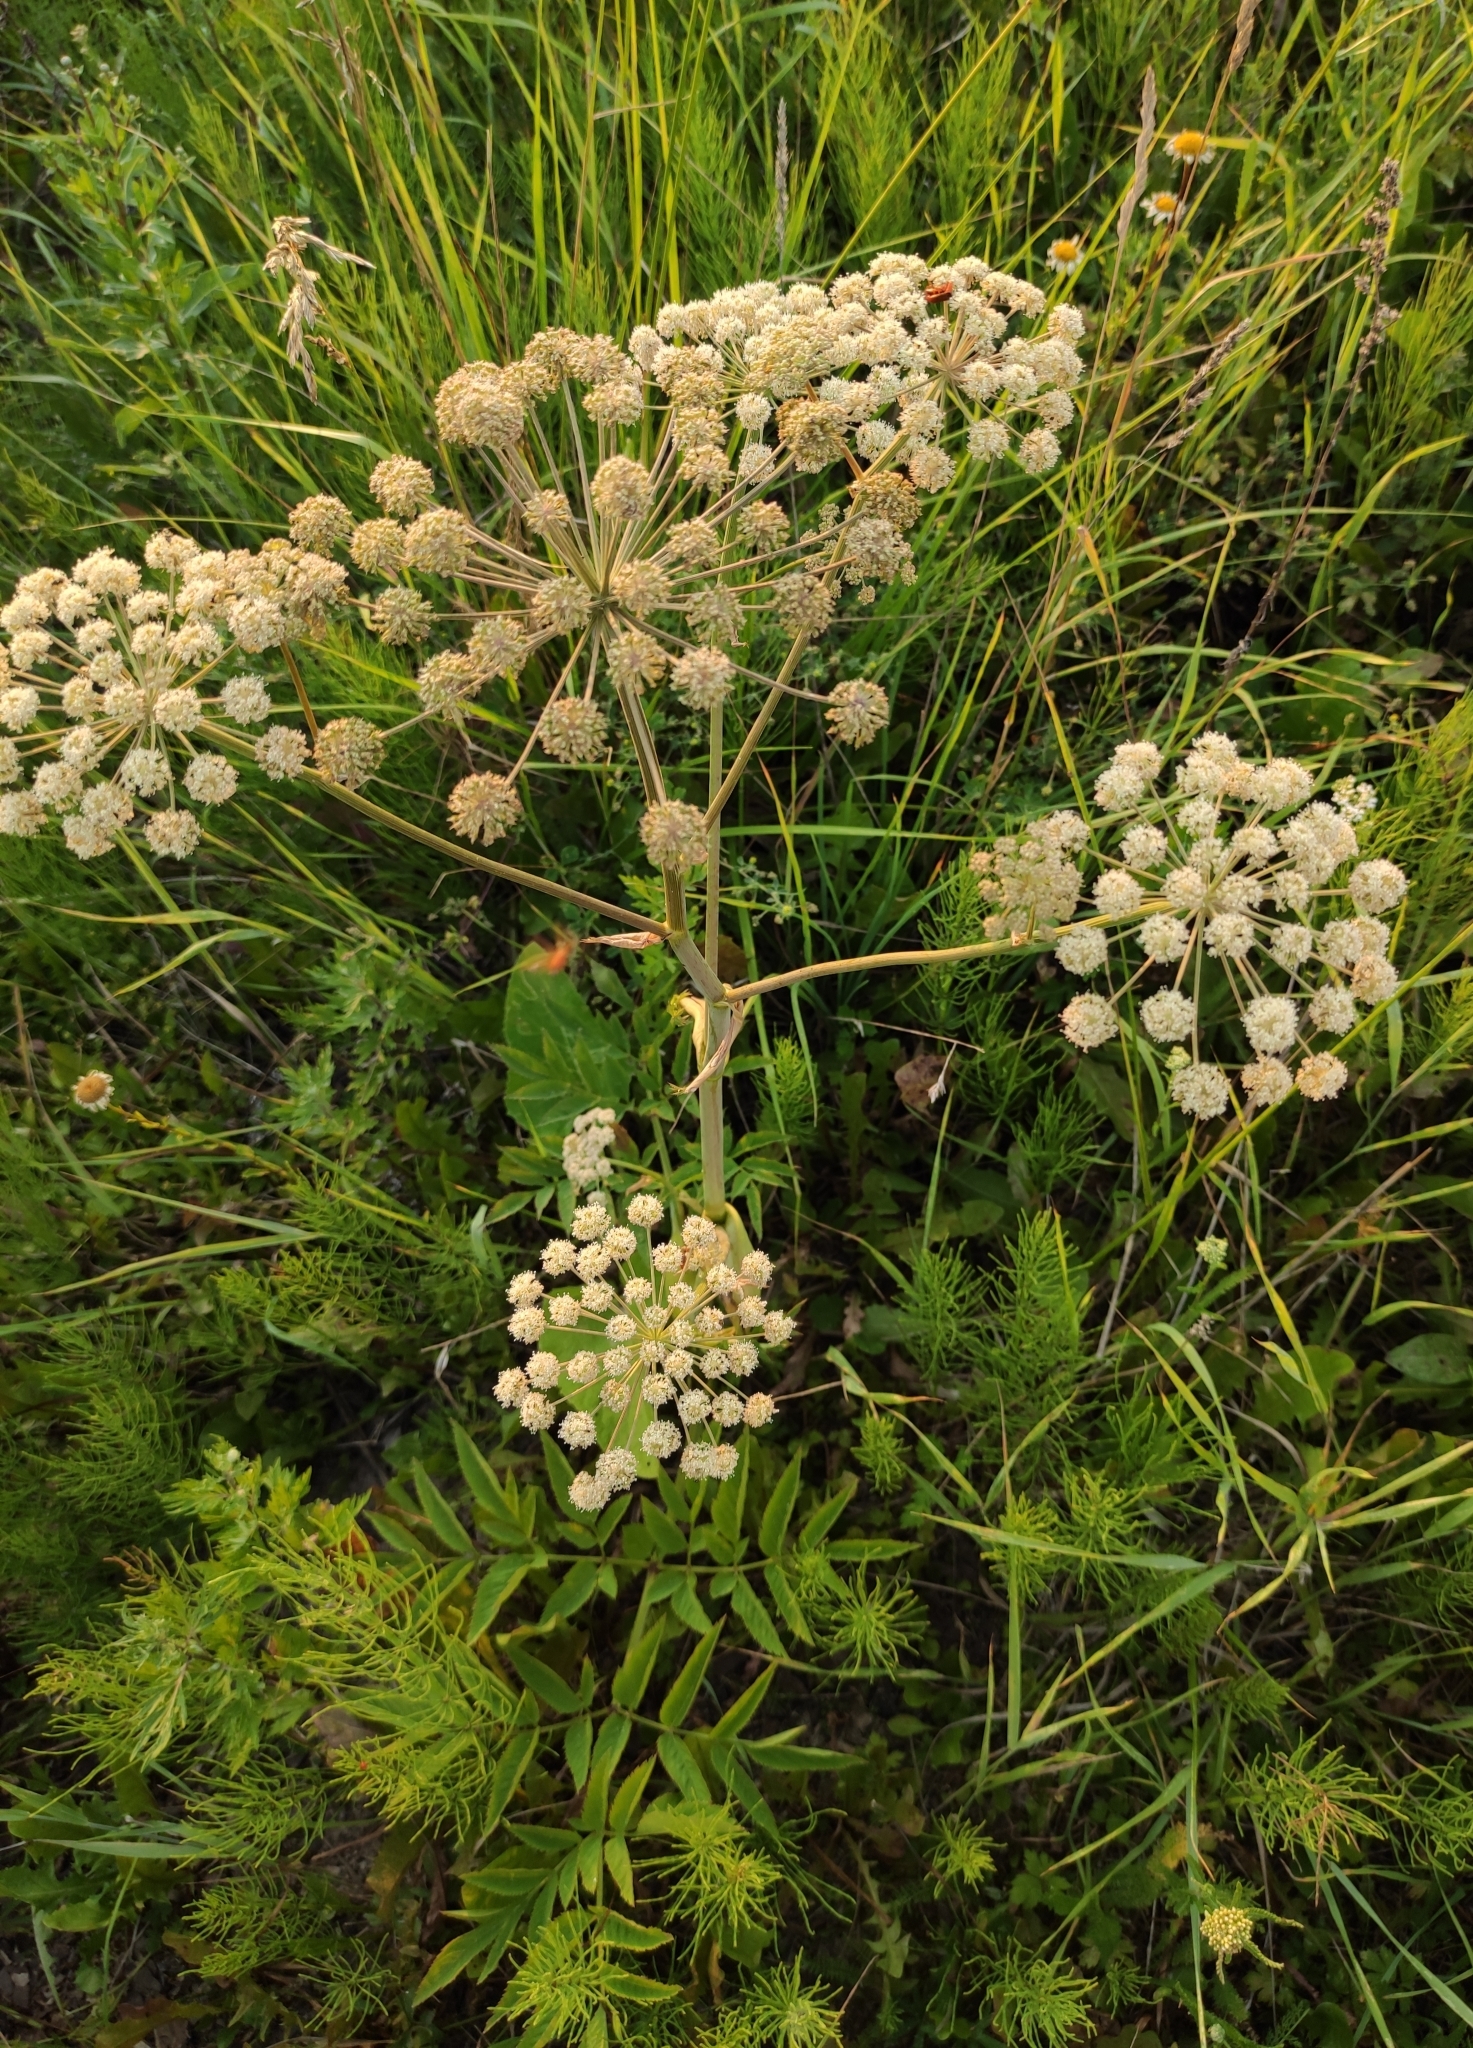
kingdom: Plantae
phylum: Tracheophyta
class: Magnoliopsida
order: Apiales
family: Apiaceae
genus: Angelica
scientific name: Angelica sylvestris
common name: Wild angelica
